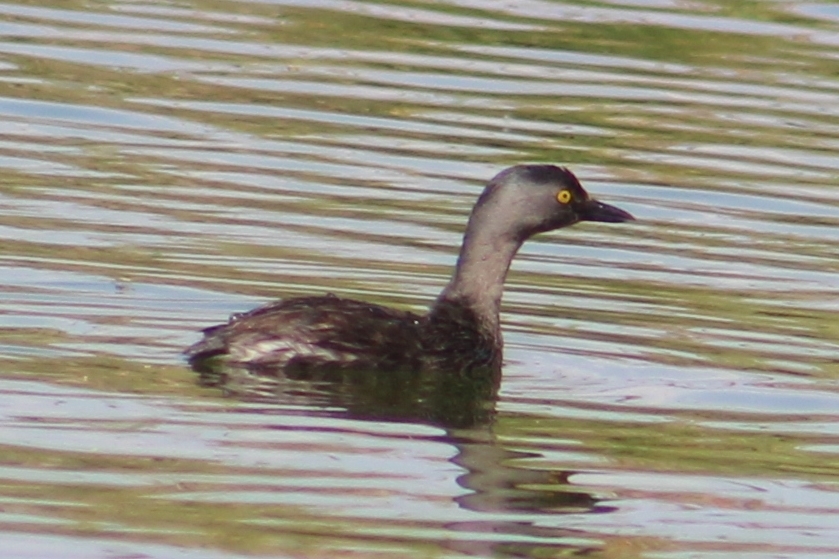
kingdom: Animalia
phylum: Chordata
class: Aves
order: Podicipediformes
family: Podicipedidae
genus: Tachybaptus
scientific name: Tachybaptus dominicus
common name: Least grebe
